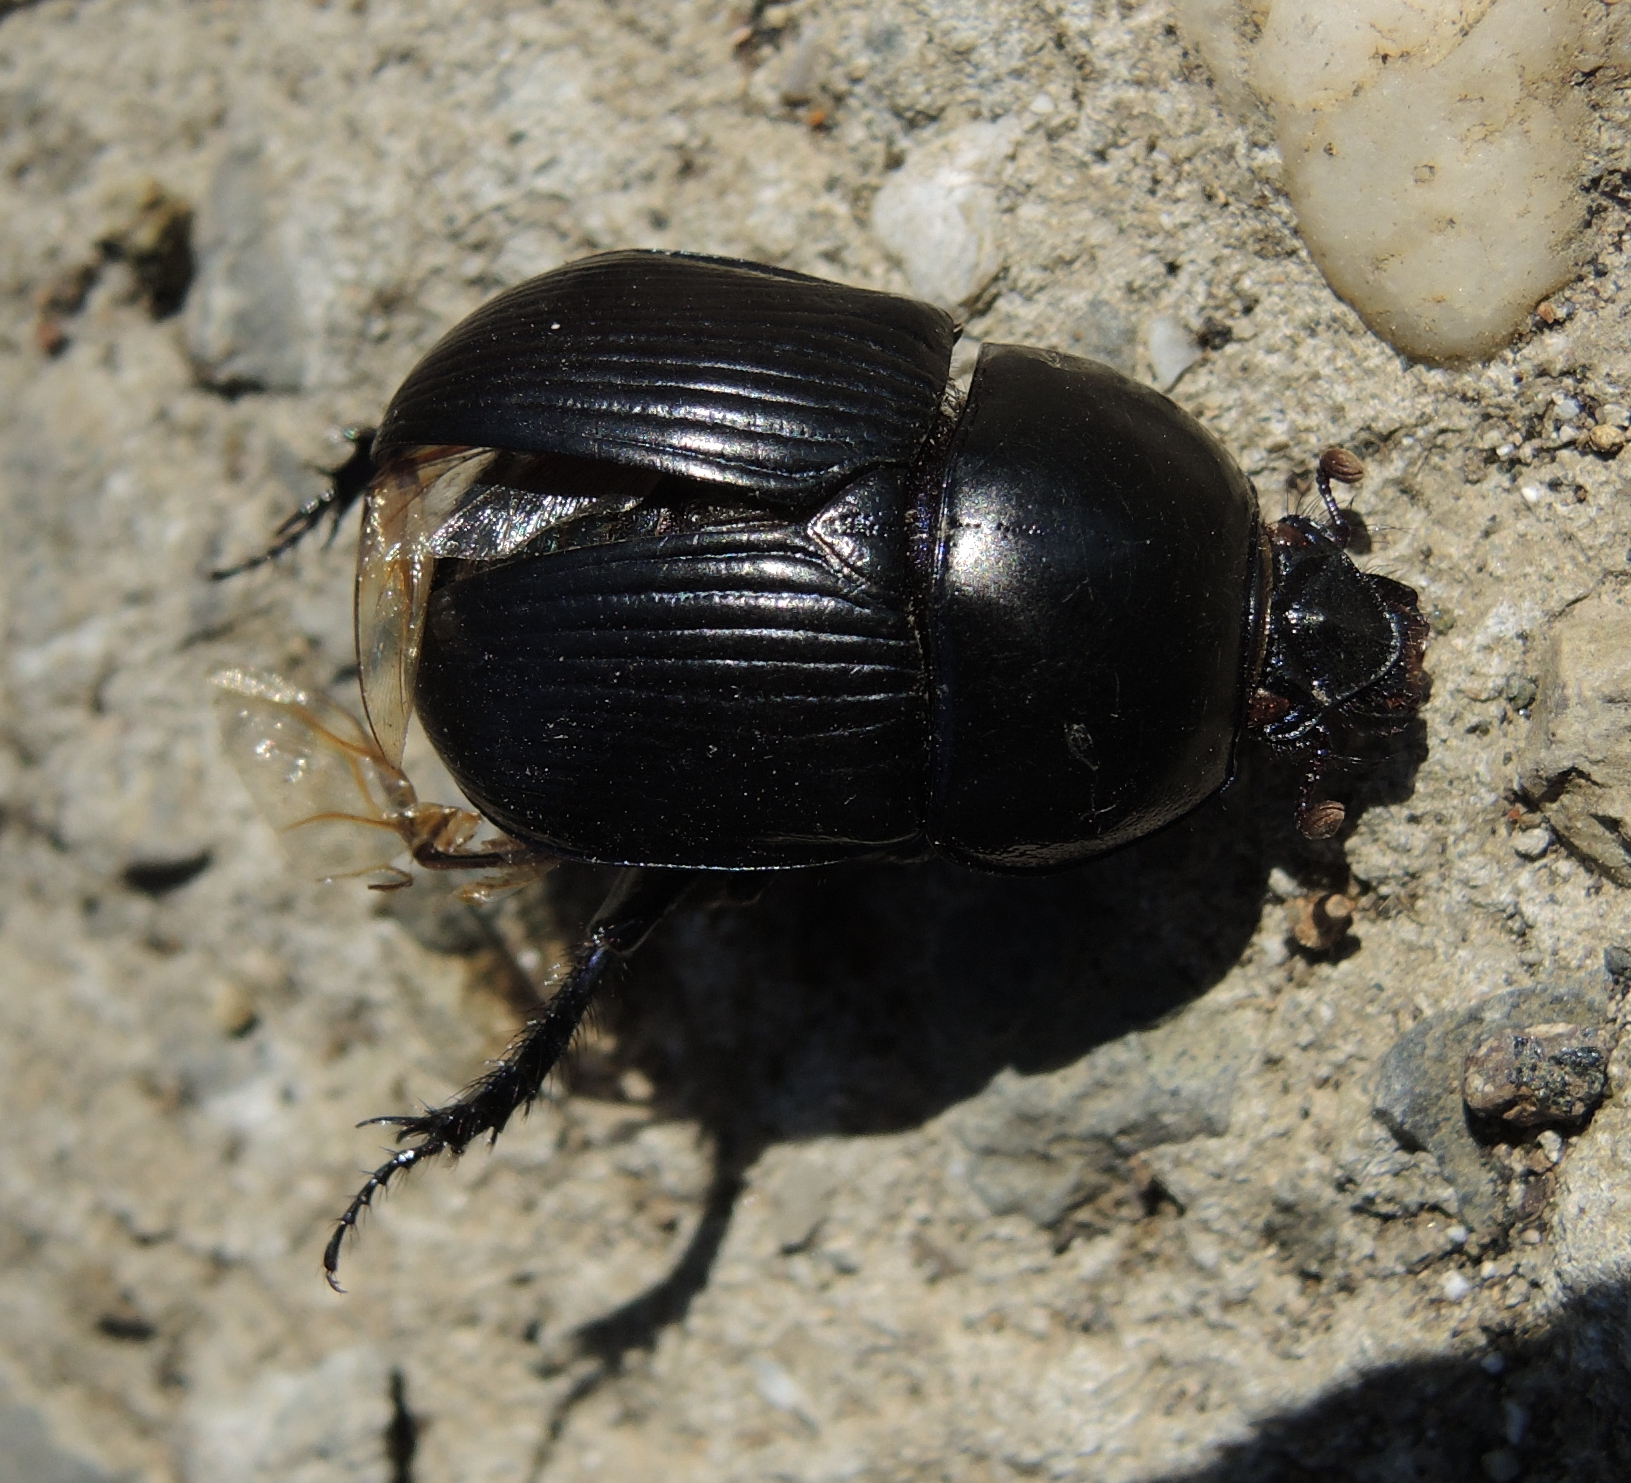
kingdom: Animalia
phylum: Arthropoda
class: Insecta
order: Coleoptera
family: Geotrupidae
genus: Geotrupes
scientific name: Geotrupes spiniger
